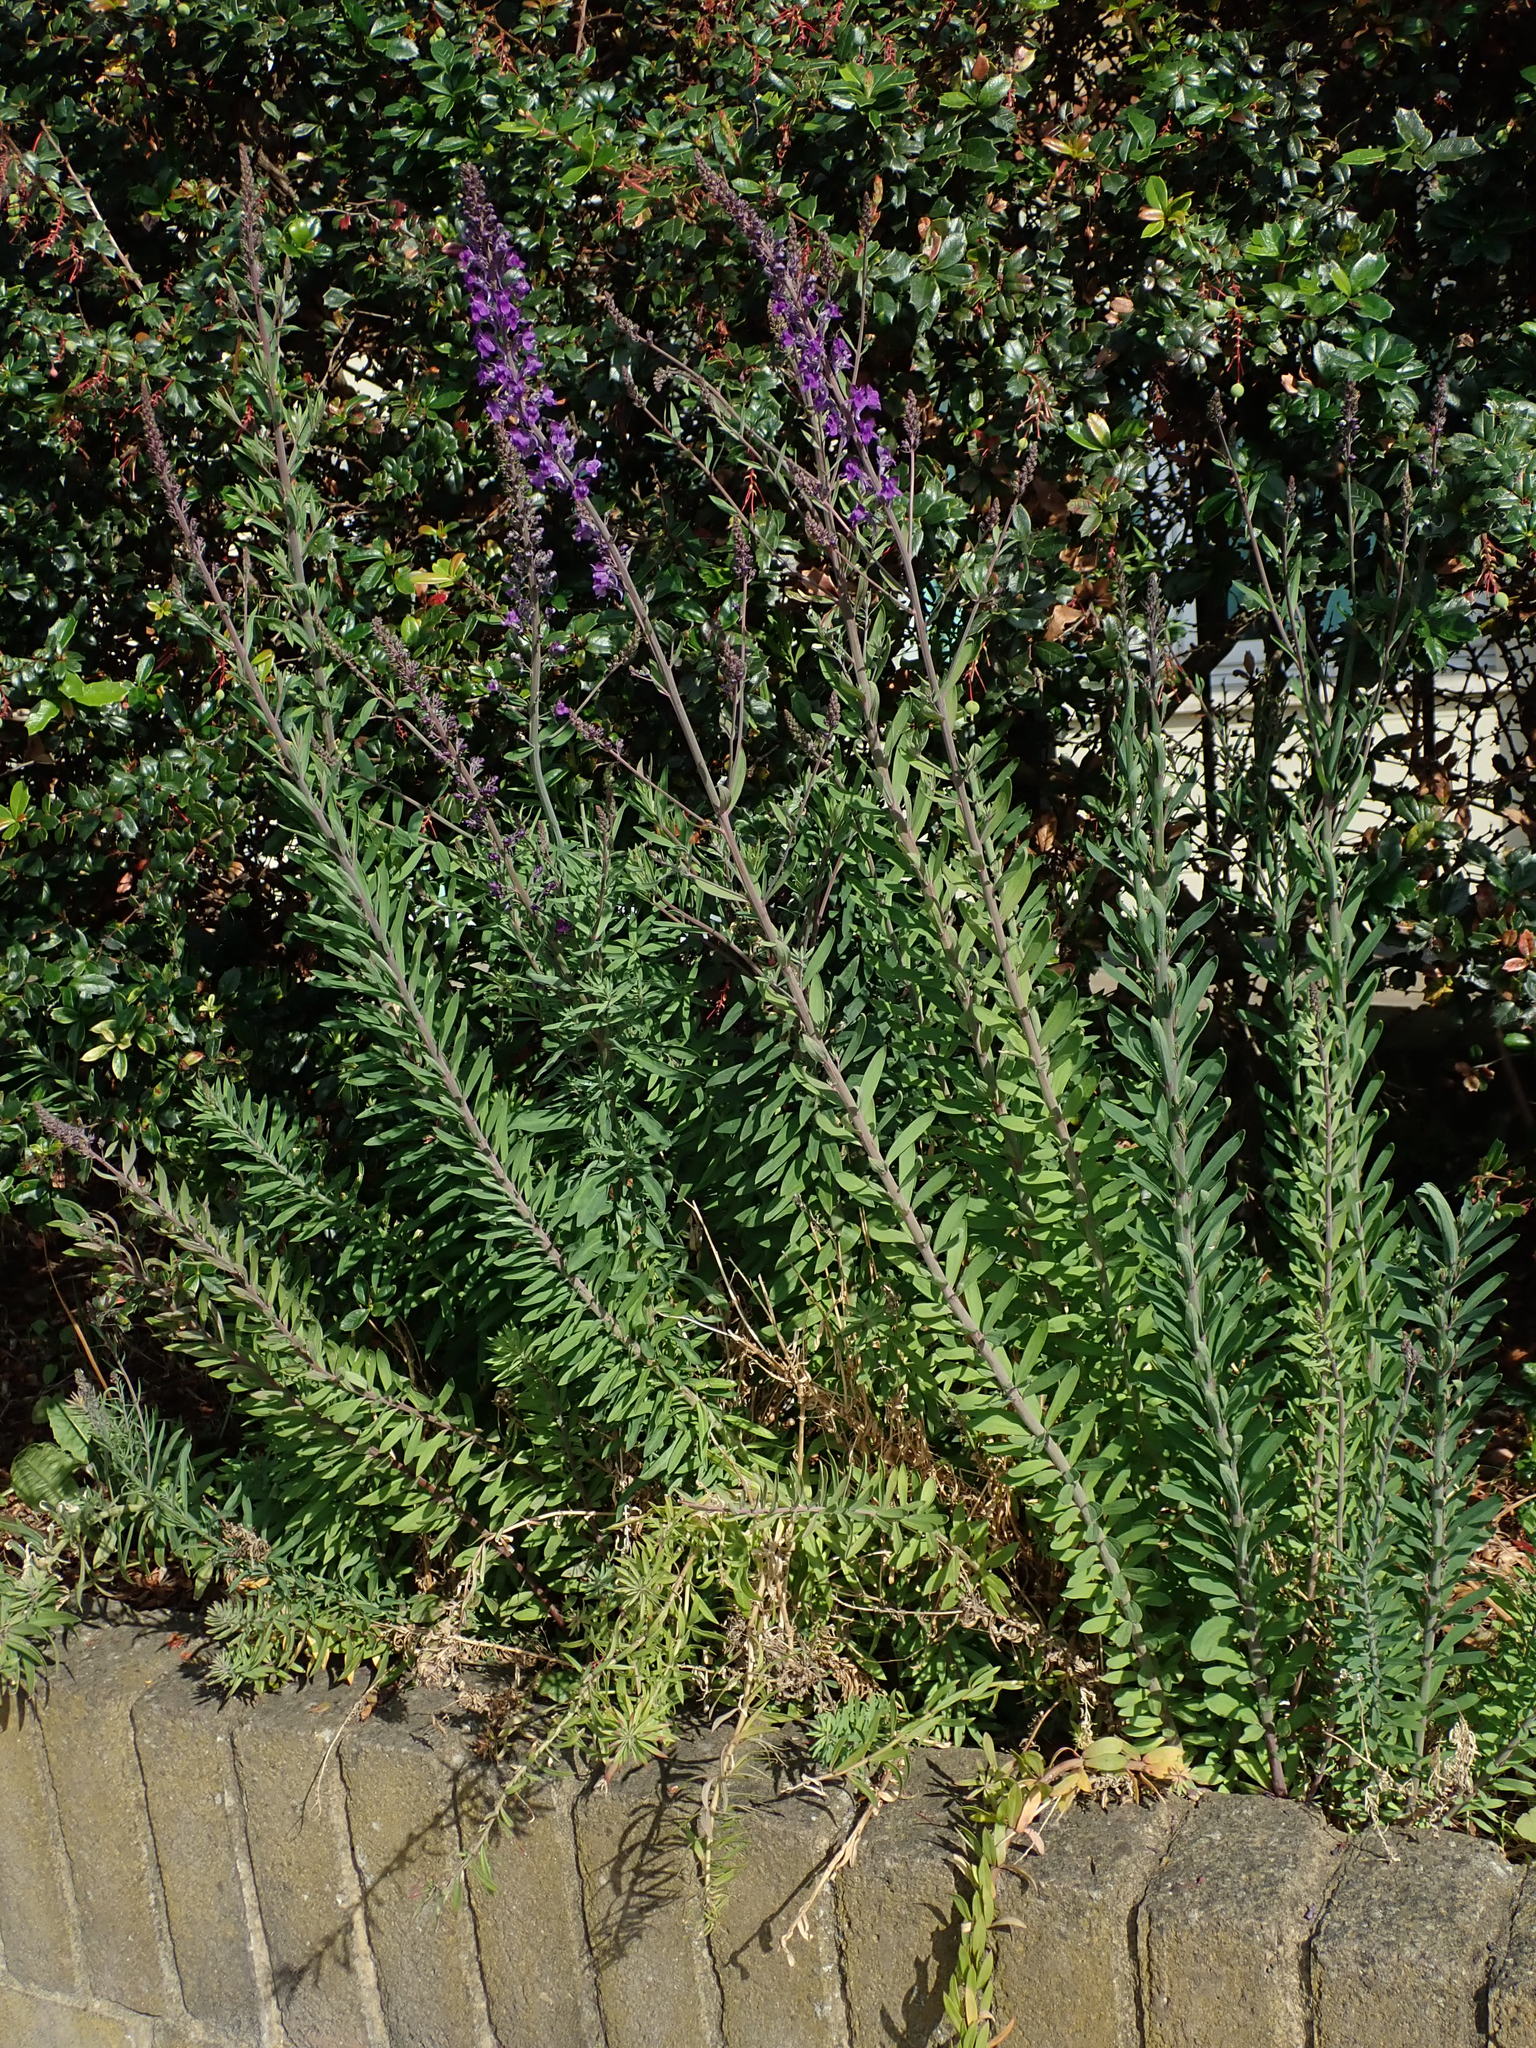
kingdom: Plantae
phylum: Tracheophyta
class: Magnoliopsida
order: Lamiales
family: Plantaginaceae
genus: Linaria
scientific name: Linaria purpurea
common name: Purple toadflax
